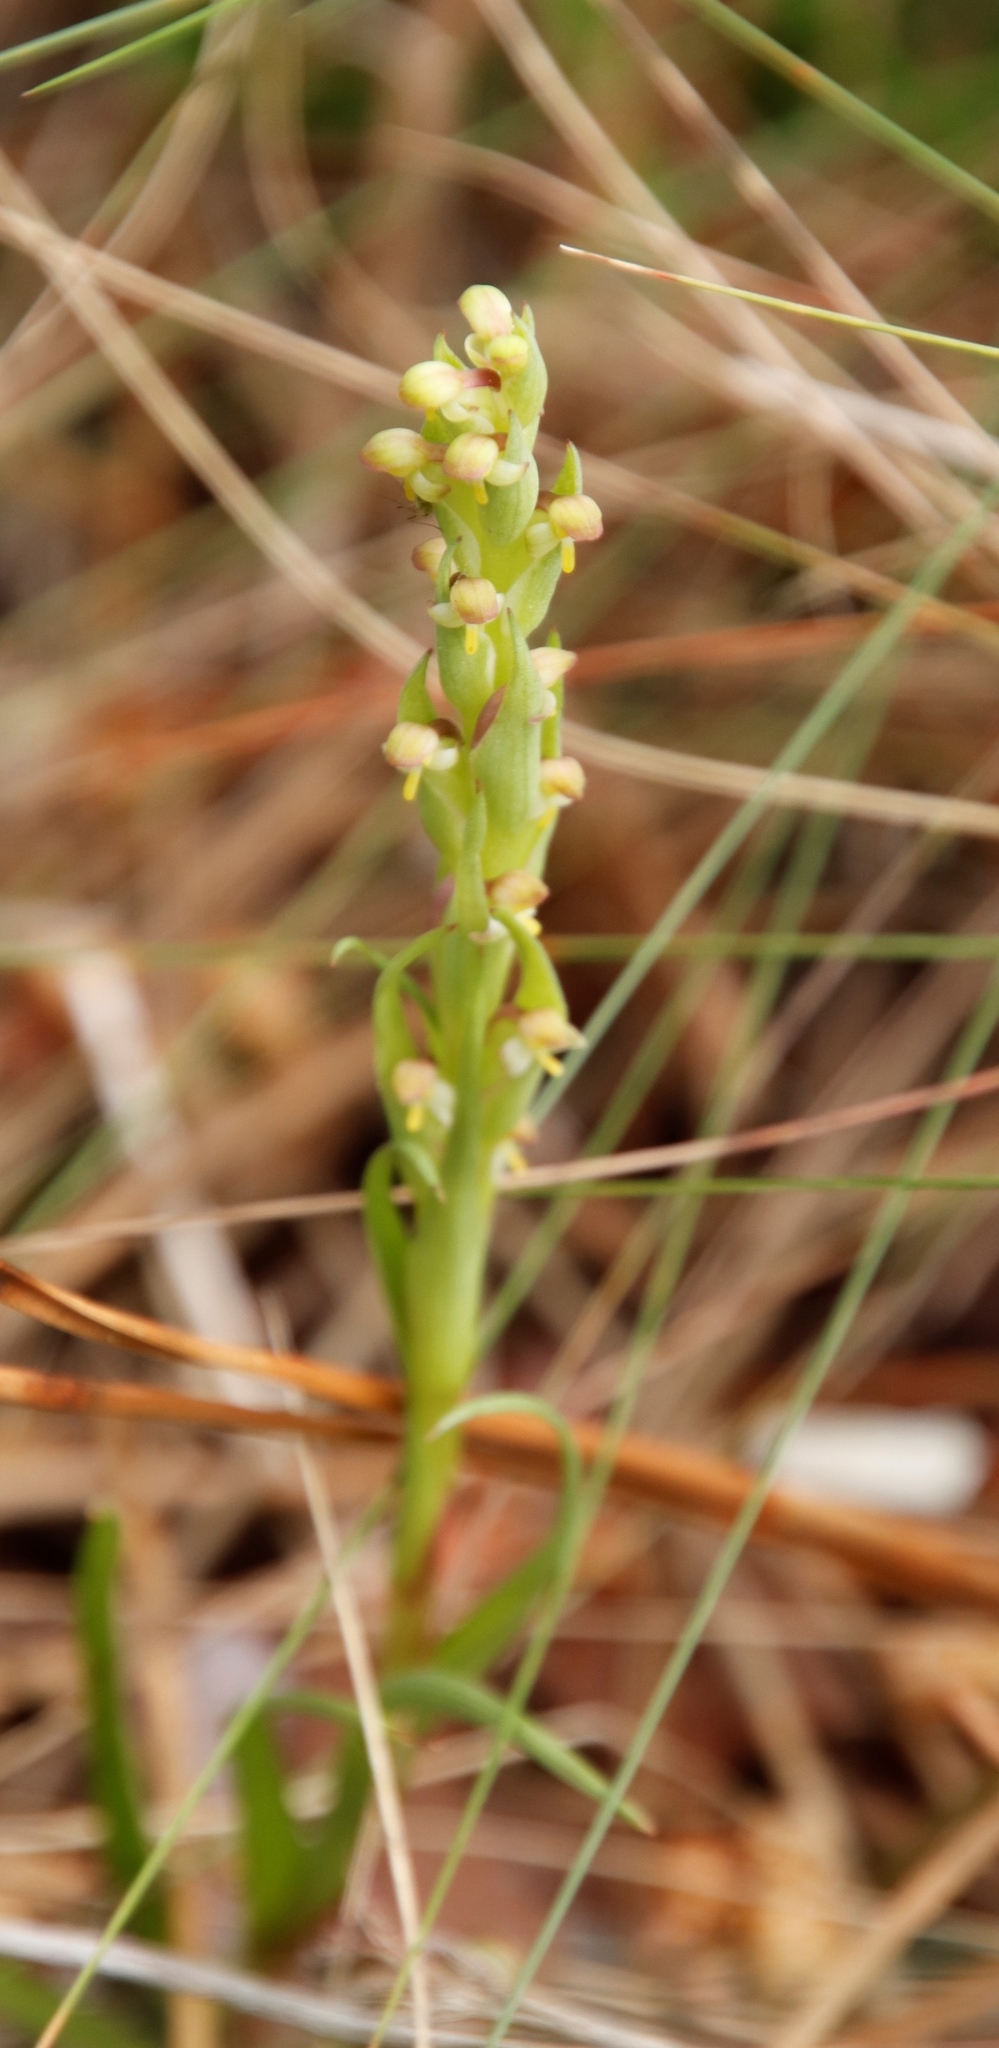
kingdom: Plantae
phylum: Tracheophyta
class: Liliopsida
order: Asparagales
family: Orchidaceae
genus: Disa
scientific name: Disa bracteata
